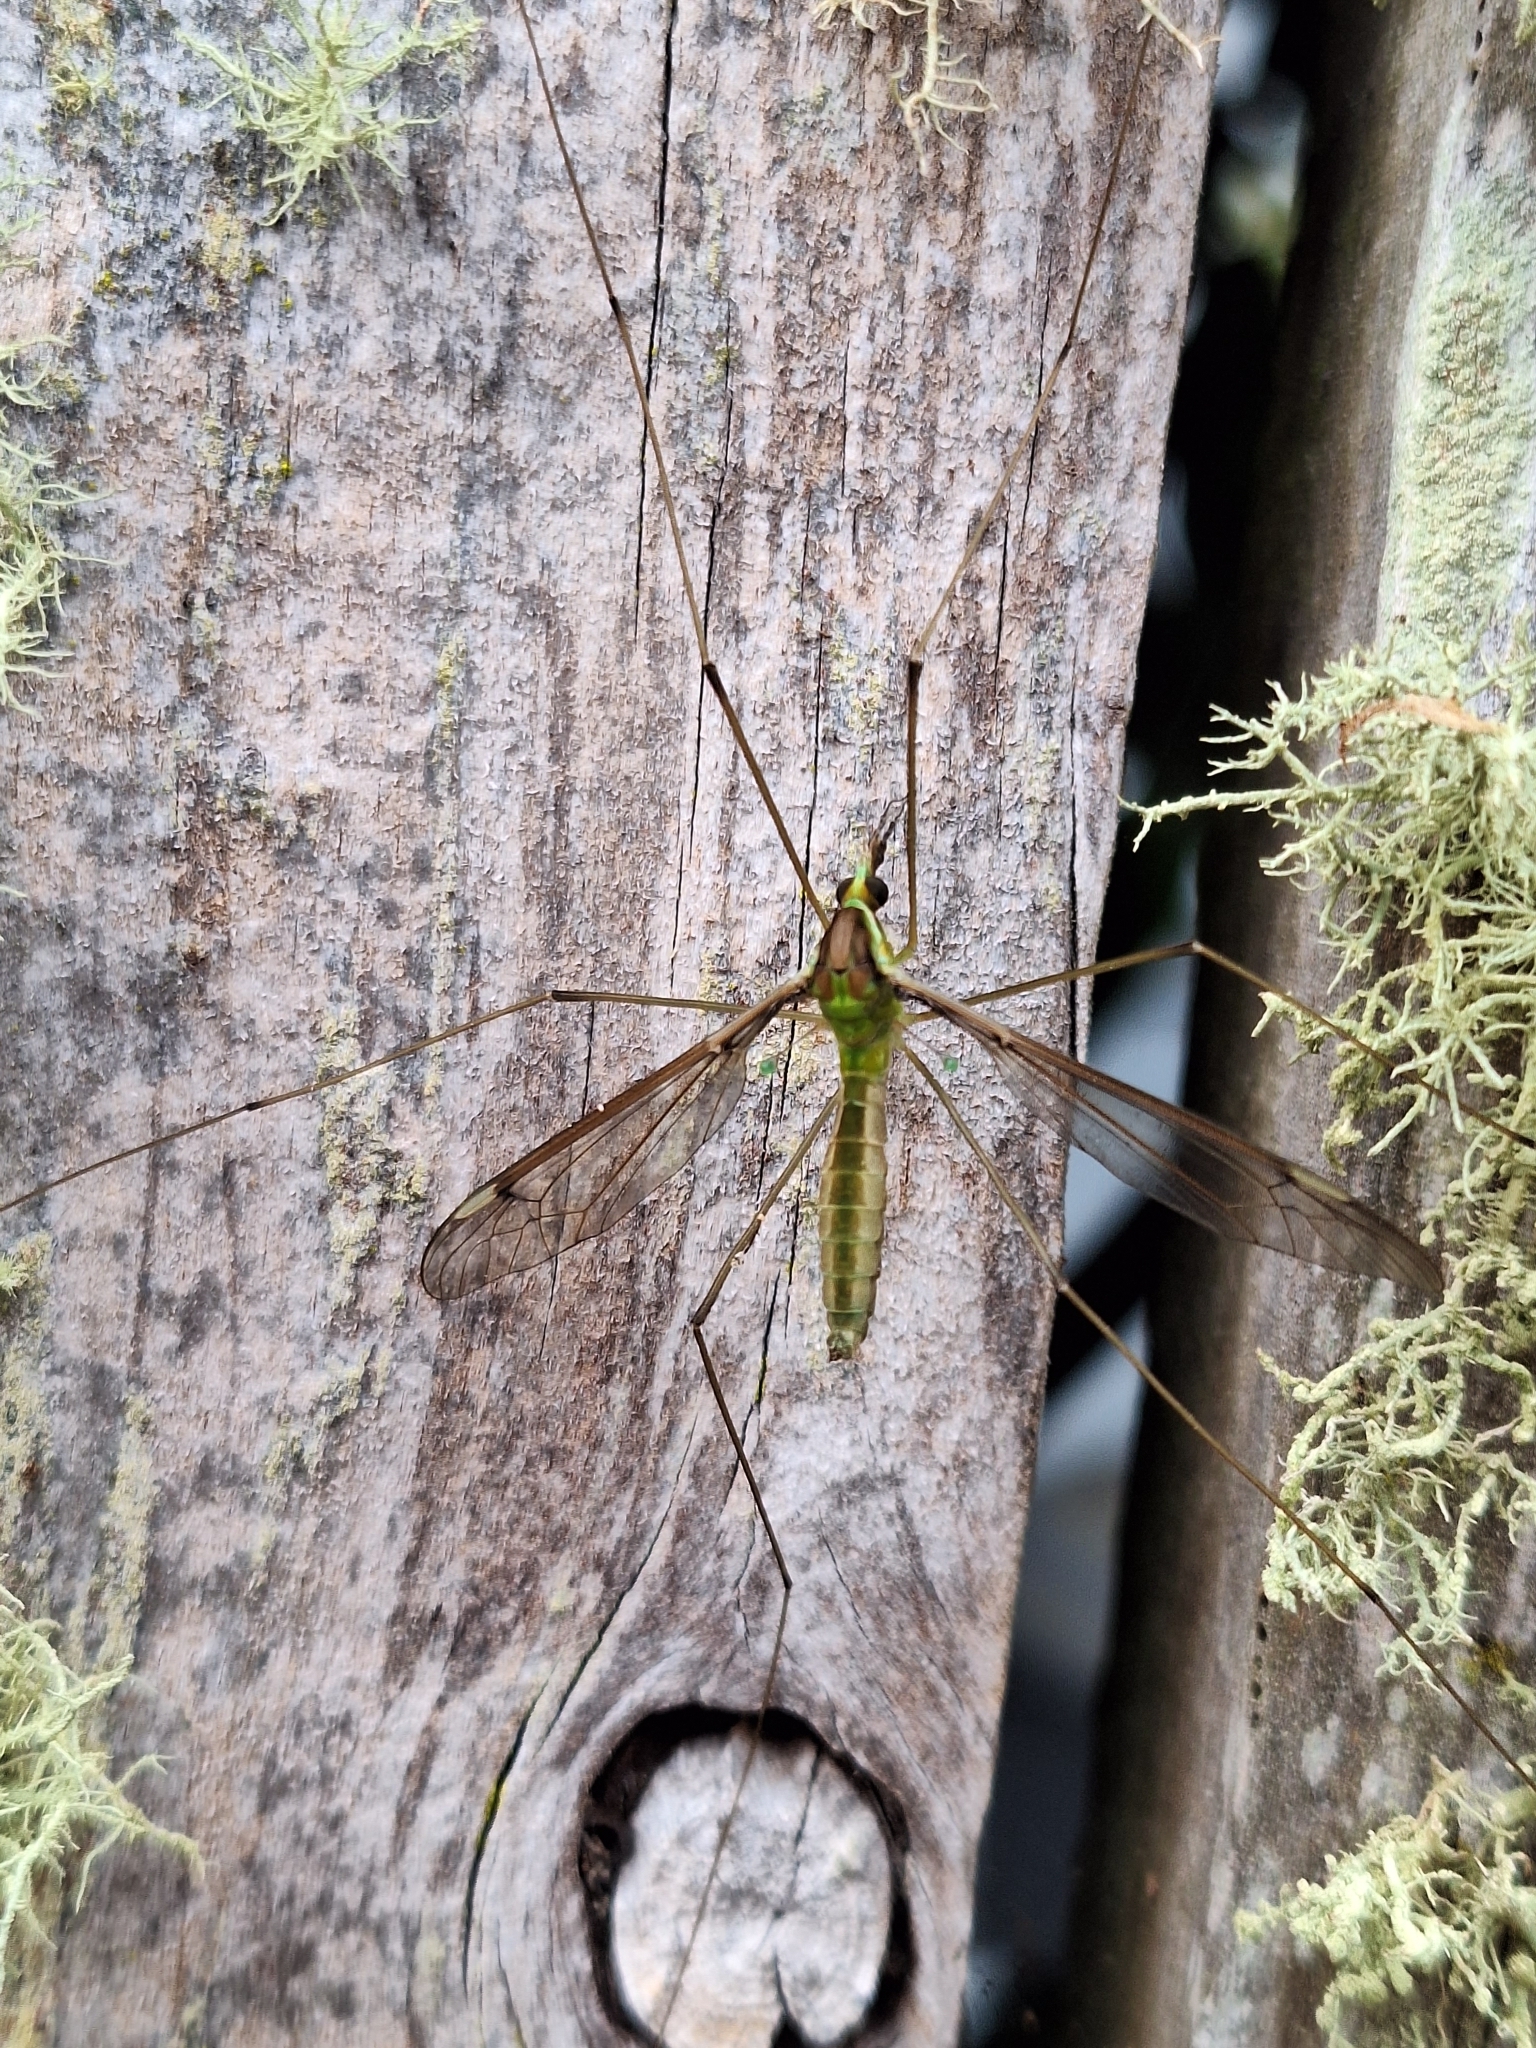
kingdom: Animalia
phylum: Arthropoda
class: Insecta
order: Diptera
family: Tipulidae
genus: Leptotarsus
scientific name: Leptotarsus albistigma
